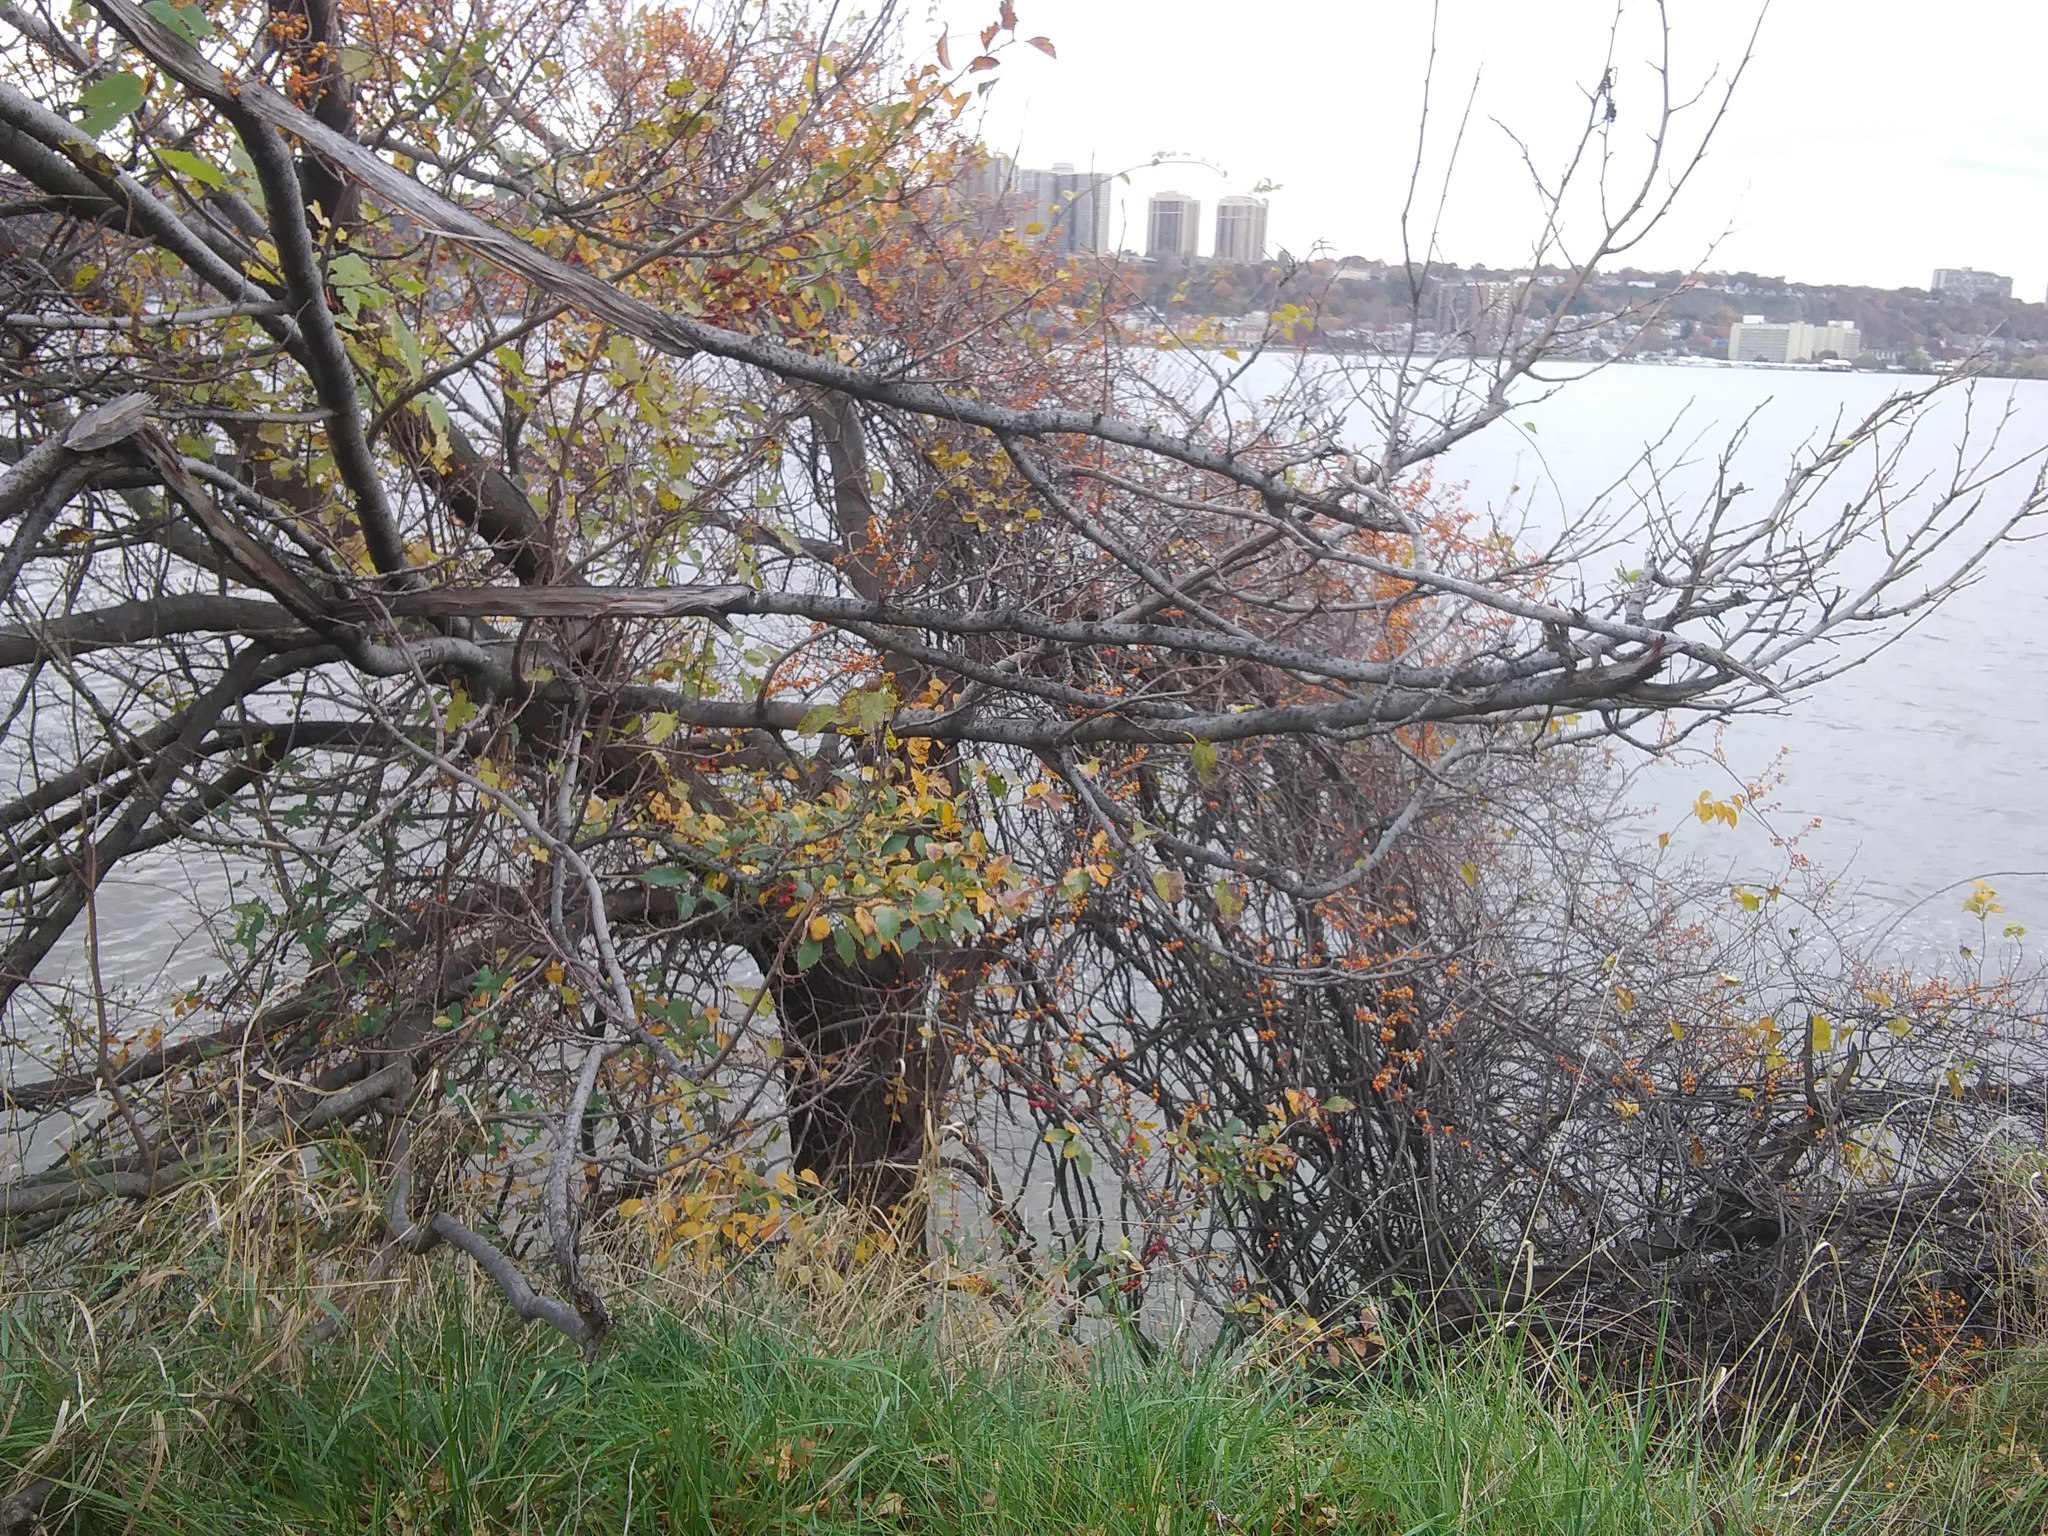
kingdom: Plantae
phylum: Tracheophyta
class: Magnoliopsida
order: Celastrales
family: Celastraceae
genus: Celastrus
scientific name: Celastrus orbiculatus
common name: Oriental bittersweet
